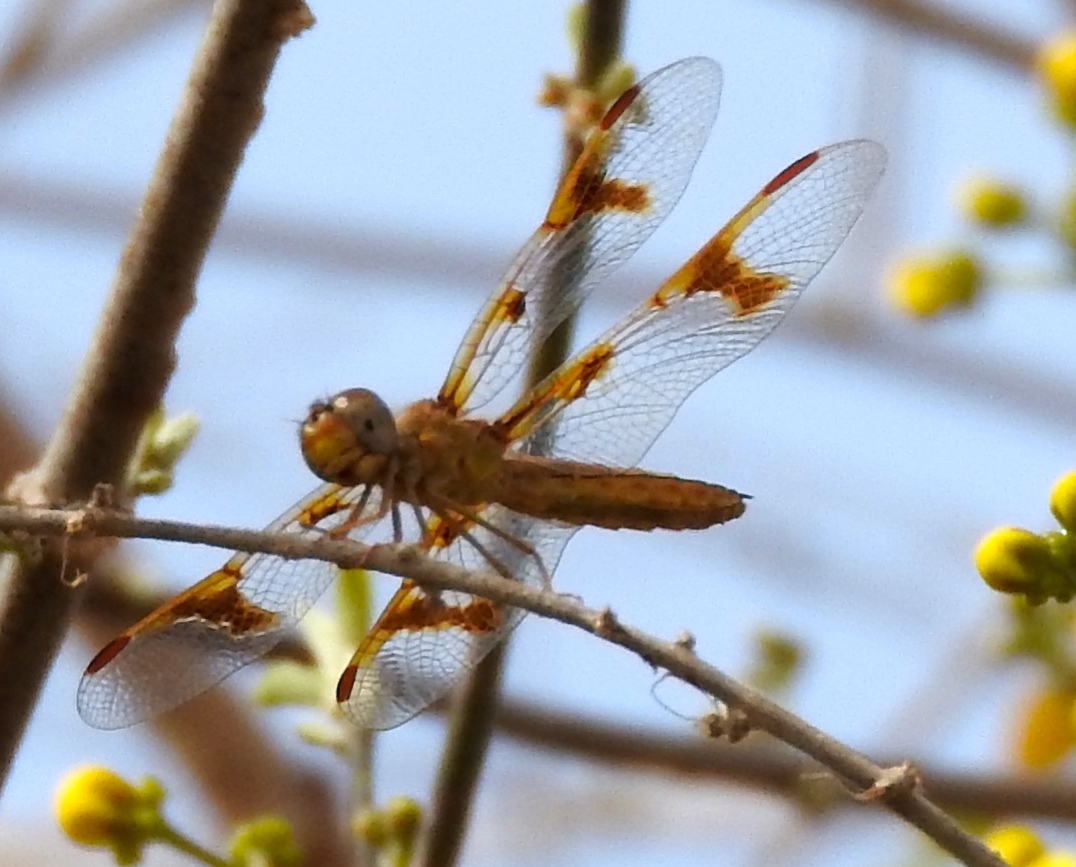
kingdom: Animalia
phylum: Arthropoda
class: Insecta
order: Odonata
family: Libellulidae
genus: Perithemis
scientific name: Perithemis intensa
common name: Mexican amberwing
